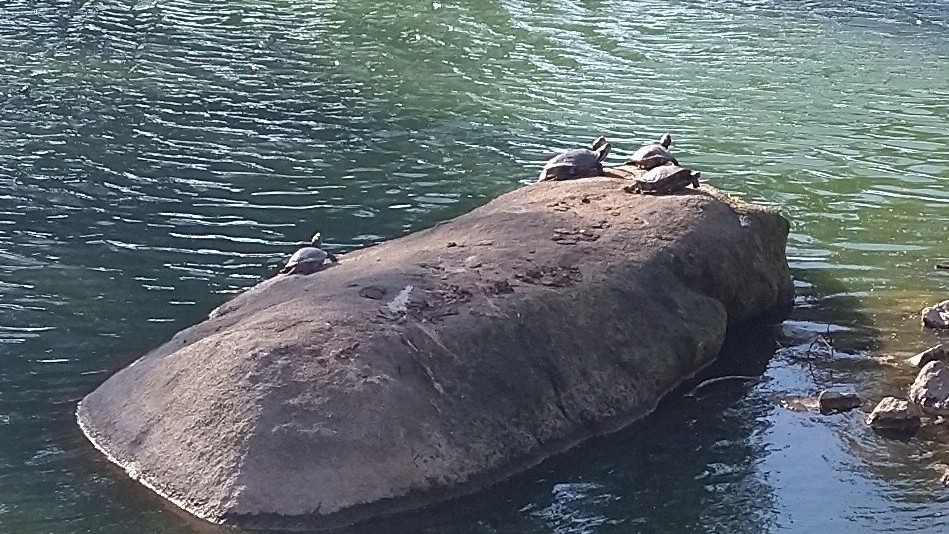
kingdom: Animalia
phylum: Chordata
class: Testudines
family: Emydidae
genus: Trachemys
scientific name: Trachemys scripta
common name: Slider
